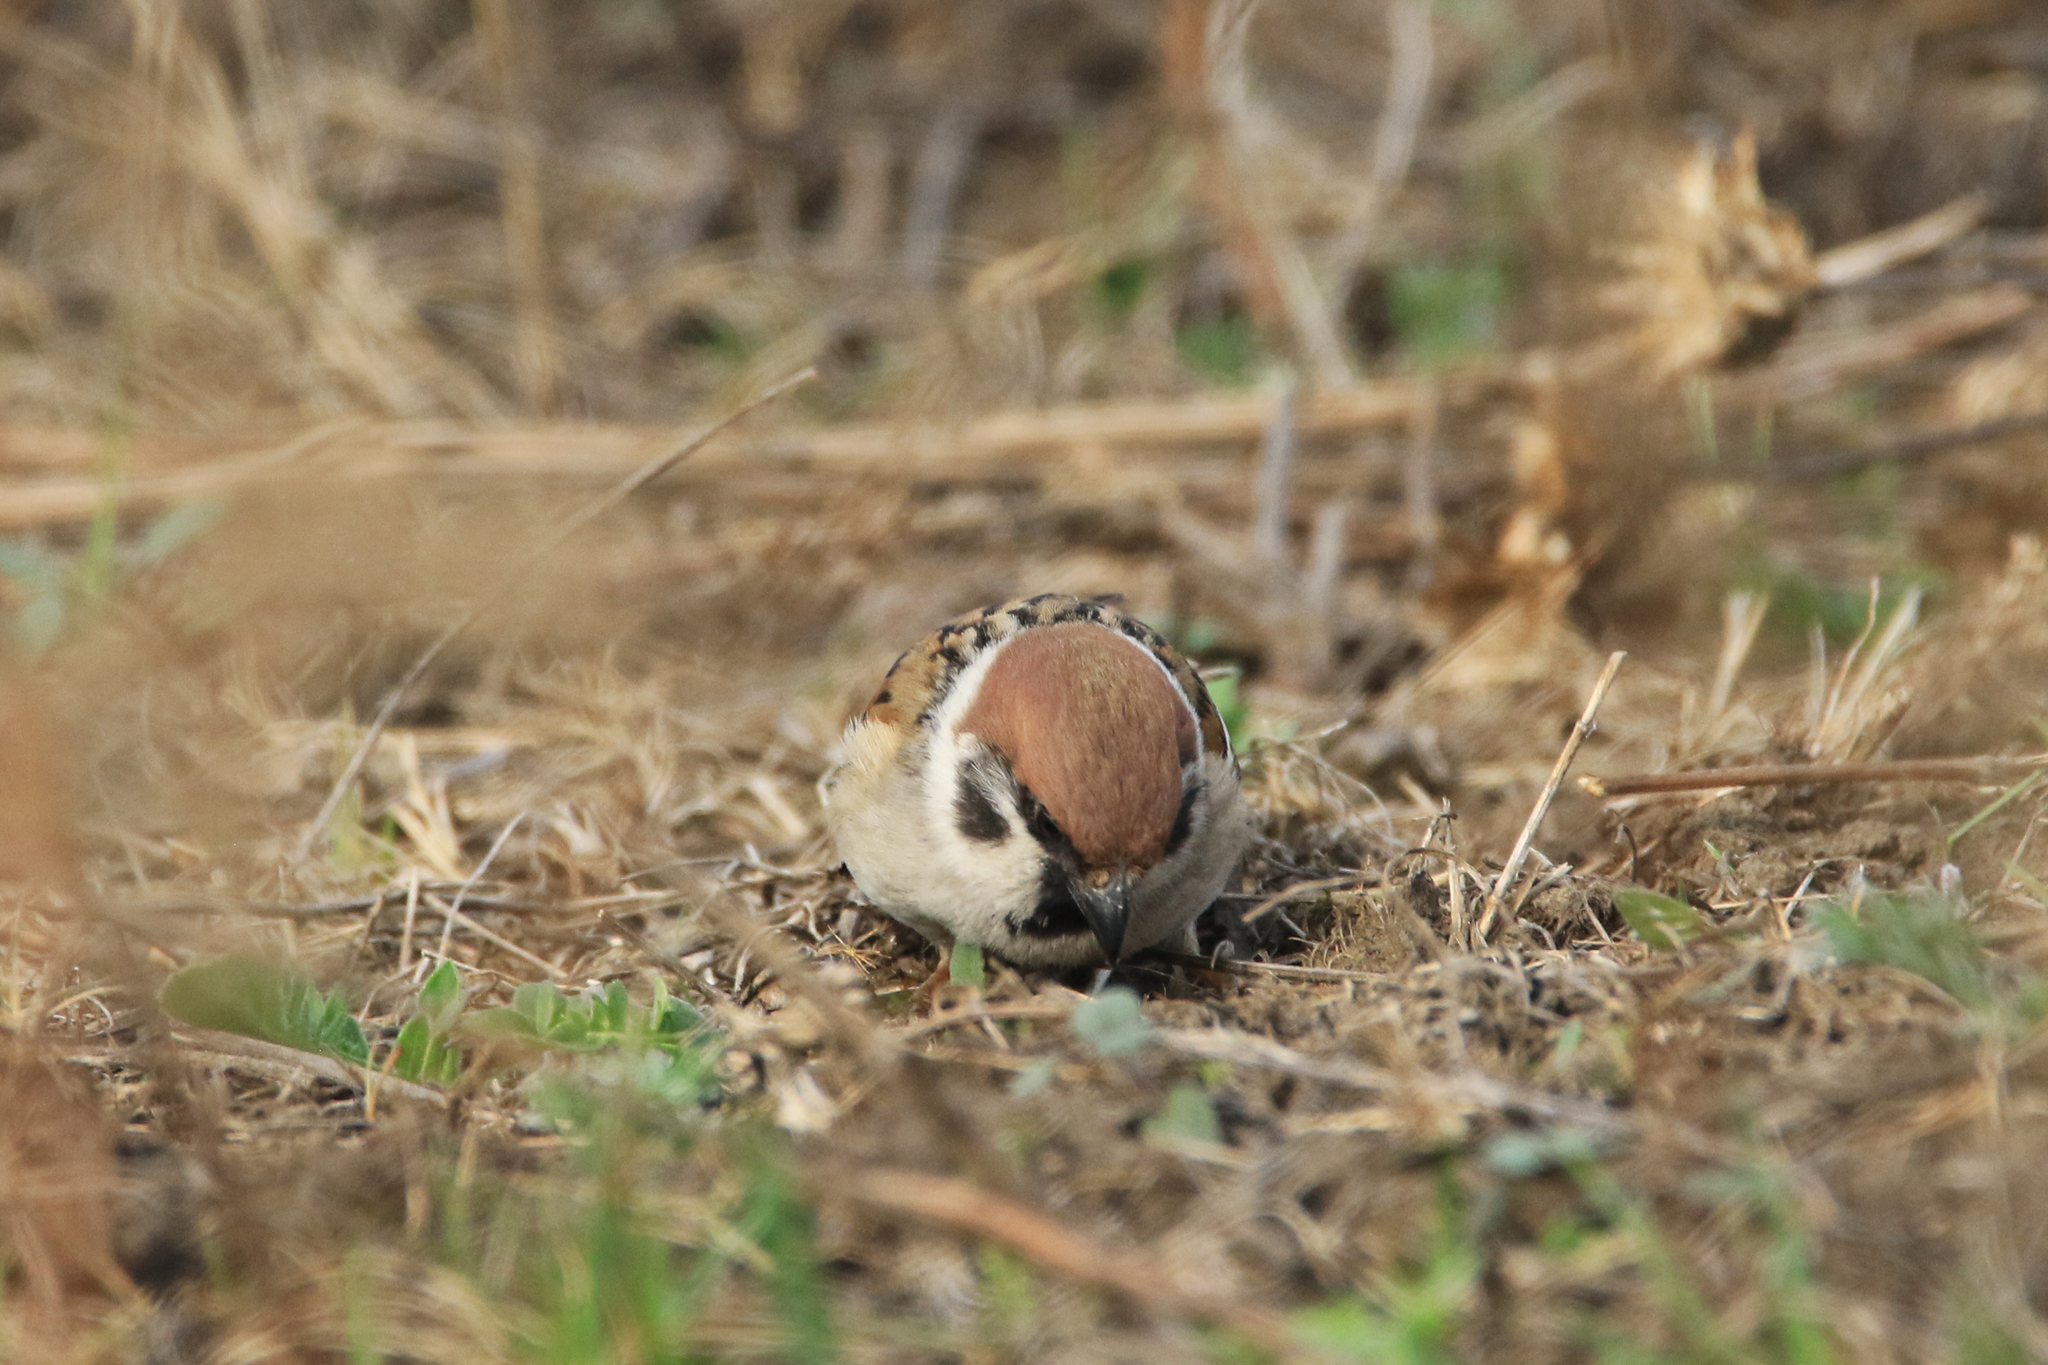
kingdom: Animalia
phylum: Chordata
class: Aves
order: Passeriformes
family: Passeridae
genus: Passer
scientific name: Passer montanus
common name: Eurasian tree sparrow
